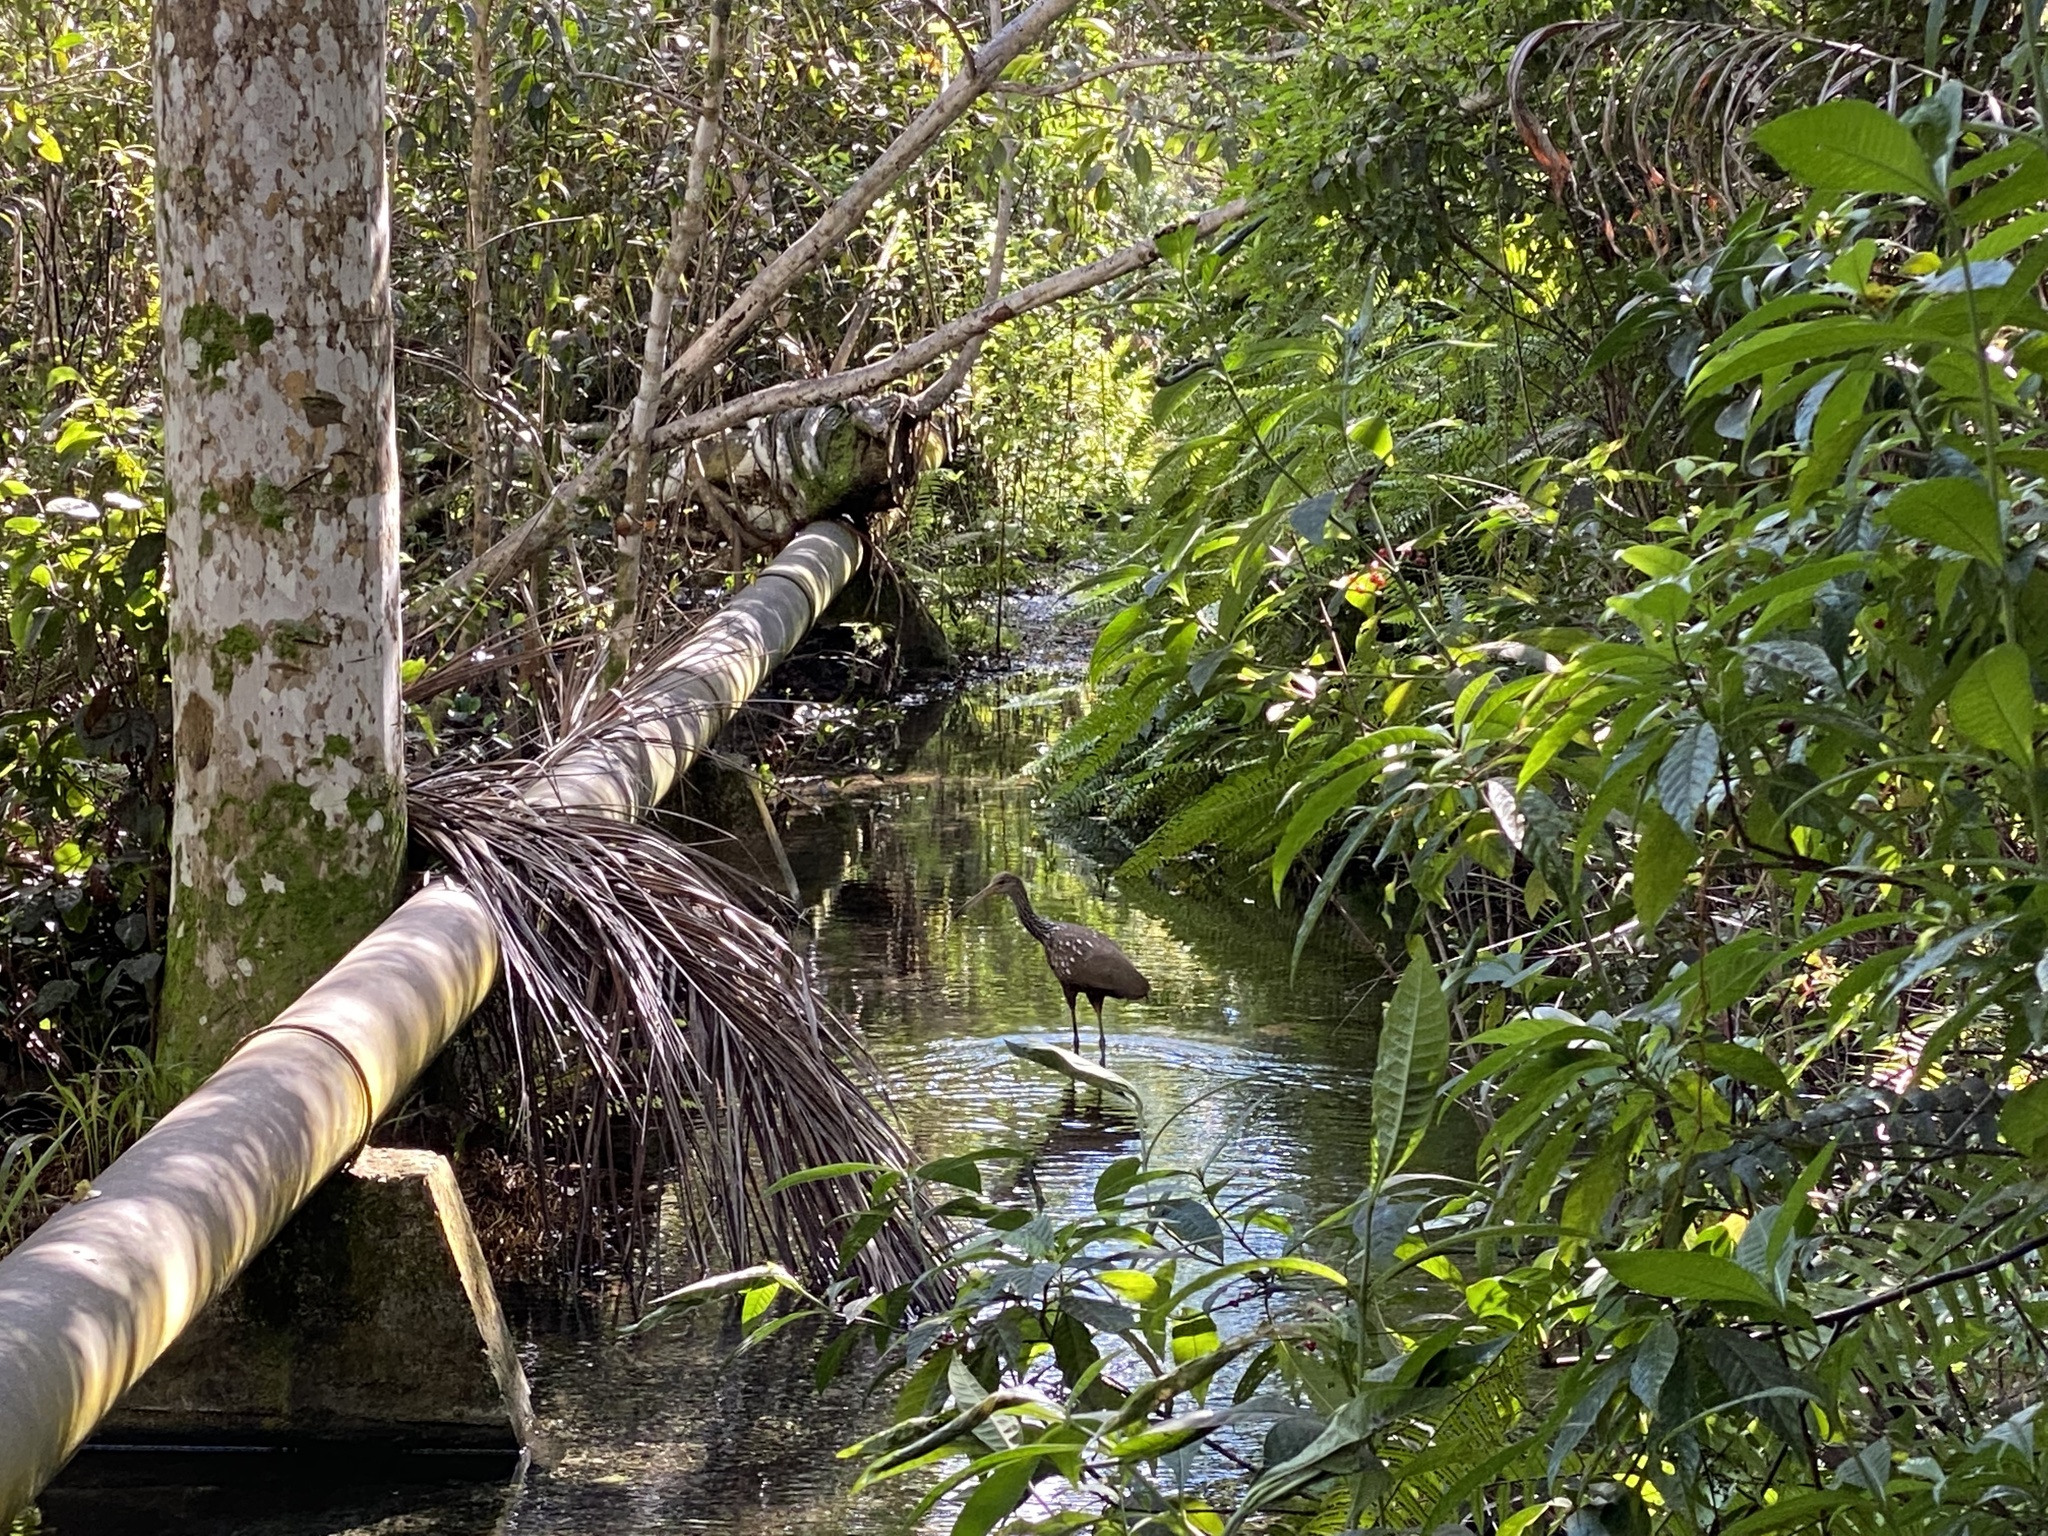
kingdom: Animalia
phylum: Chordata
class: Aves
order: Gruiformes
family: Aramidae
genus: Aramus
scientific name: Aramus guarauna
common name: Limpkin
